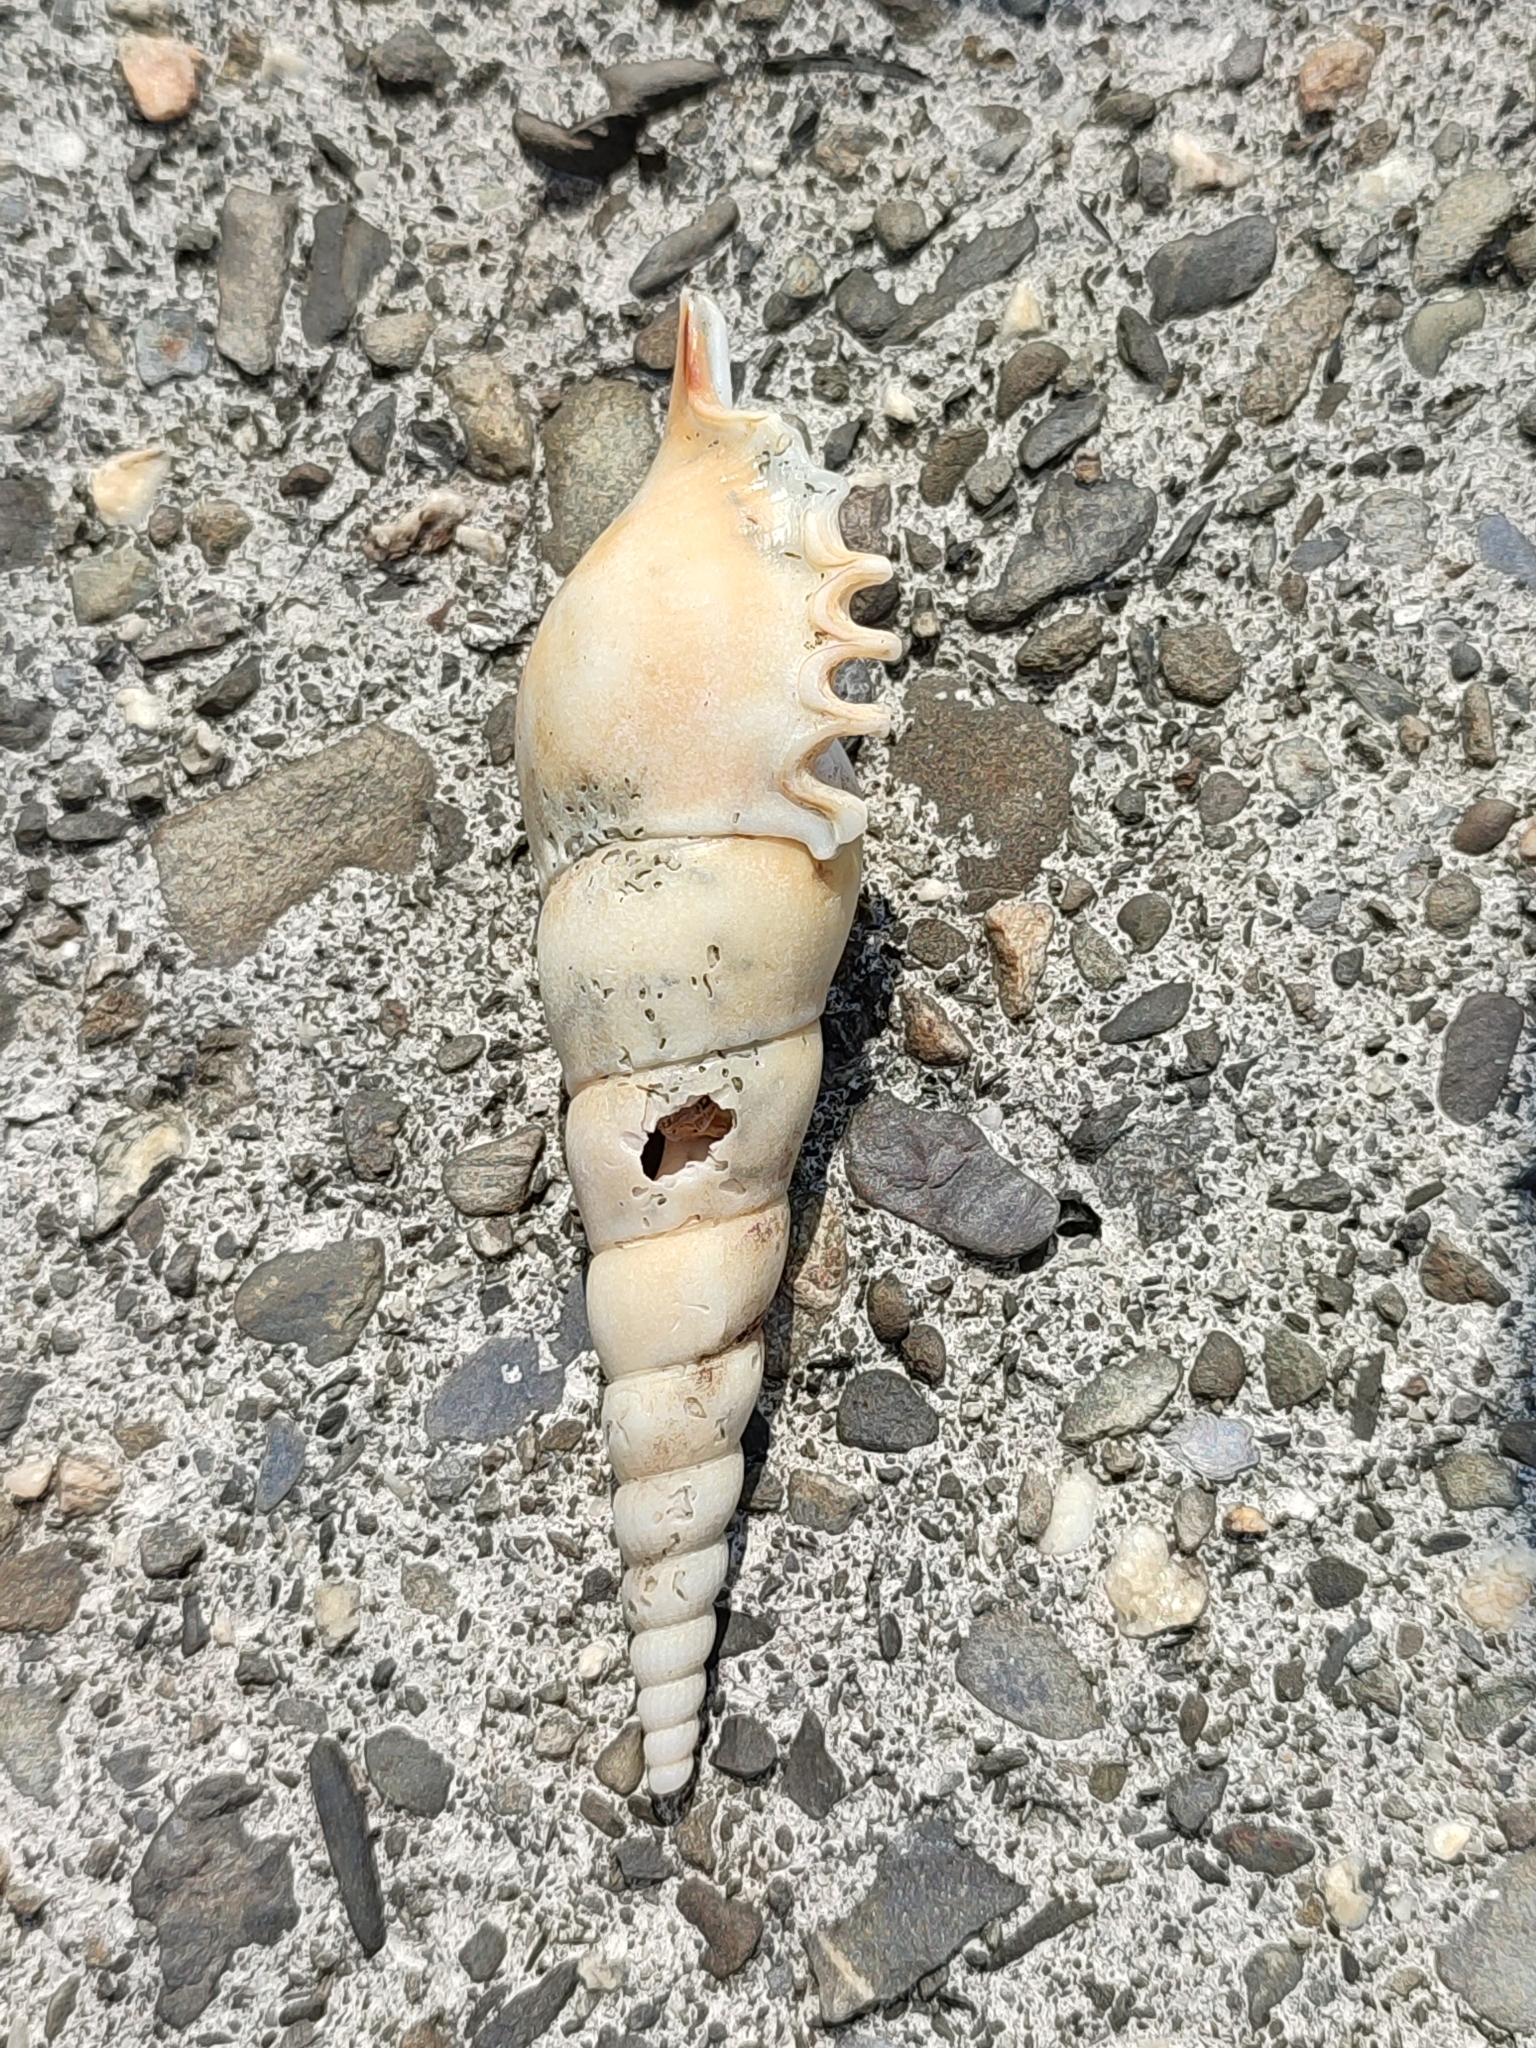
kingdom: Animalia
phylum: Mollusca
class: Gastropoda
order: Littorinimorpha
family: Rostellariidae
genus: Tibia
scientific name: Tibia fusus
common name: Shinbone tibia
